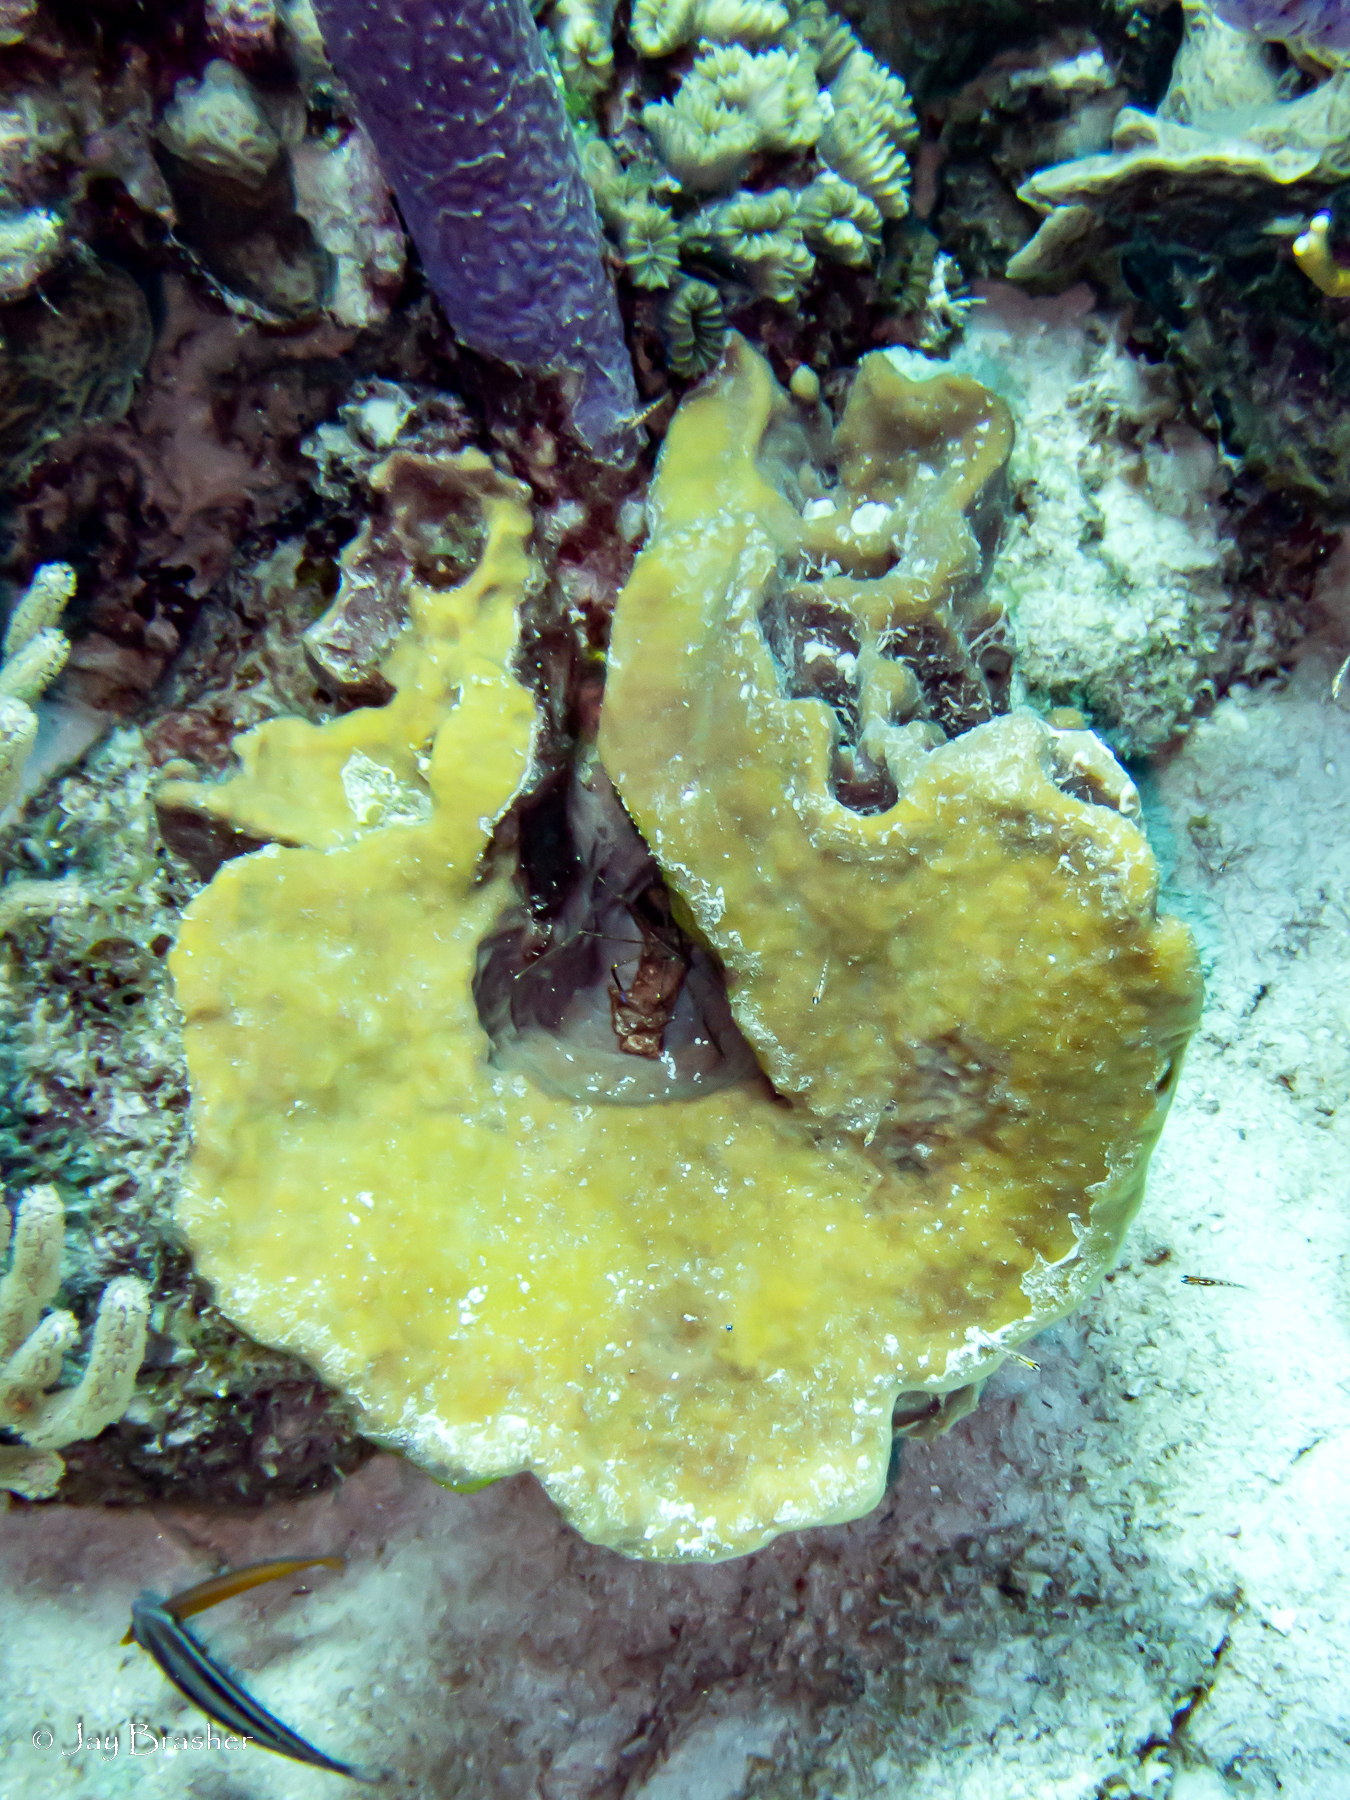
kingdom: Animalia
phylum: Porifera
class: Demospongiae
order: Suberitida
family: Halichondriidae
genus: Topsentia
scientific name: Topsentia ophiraphidites
